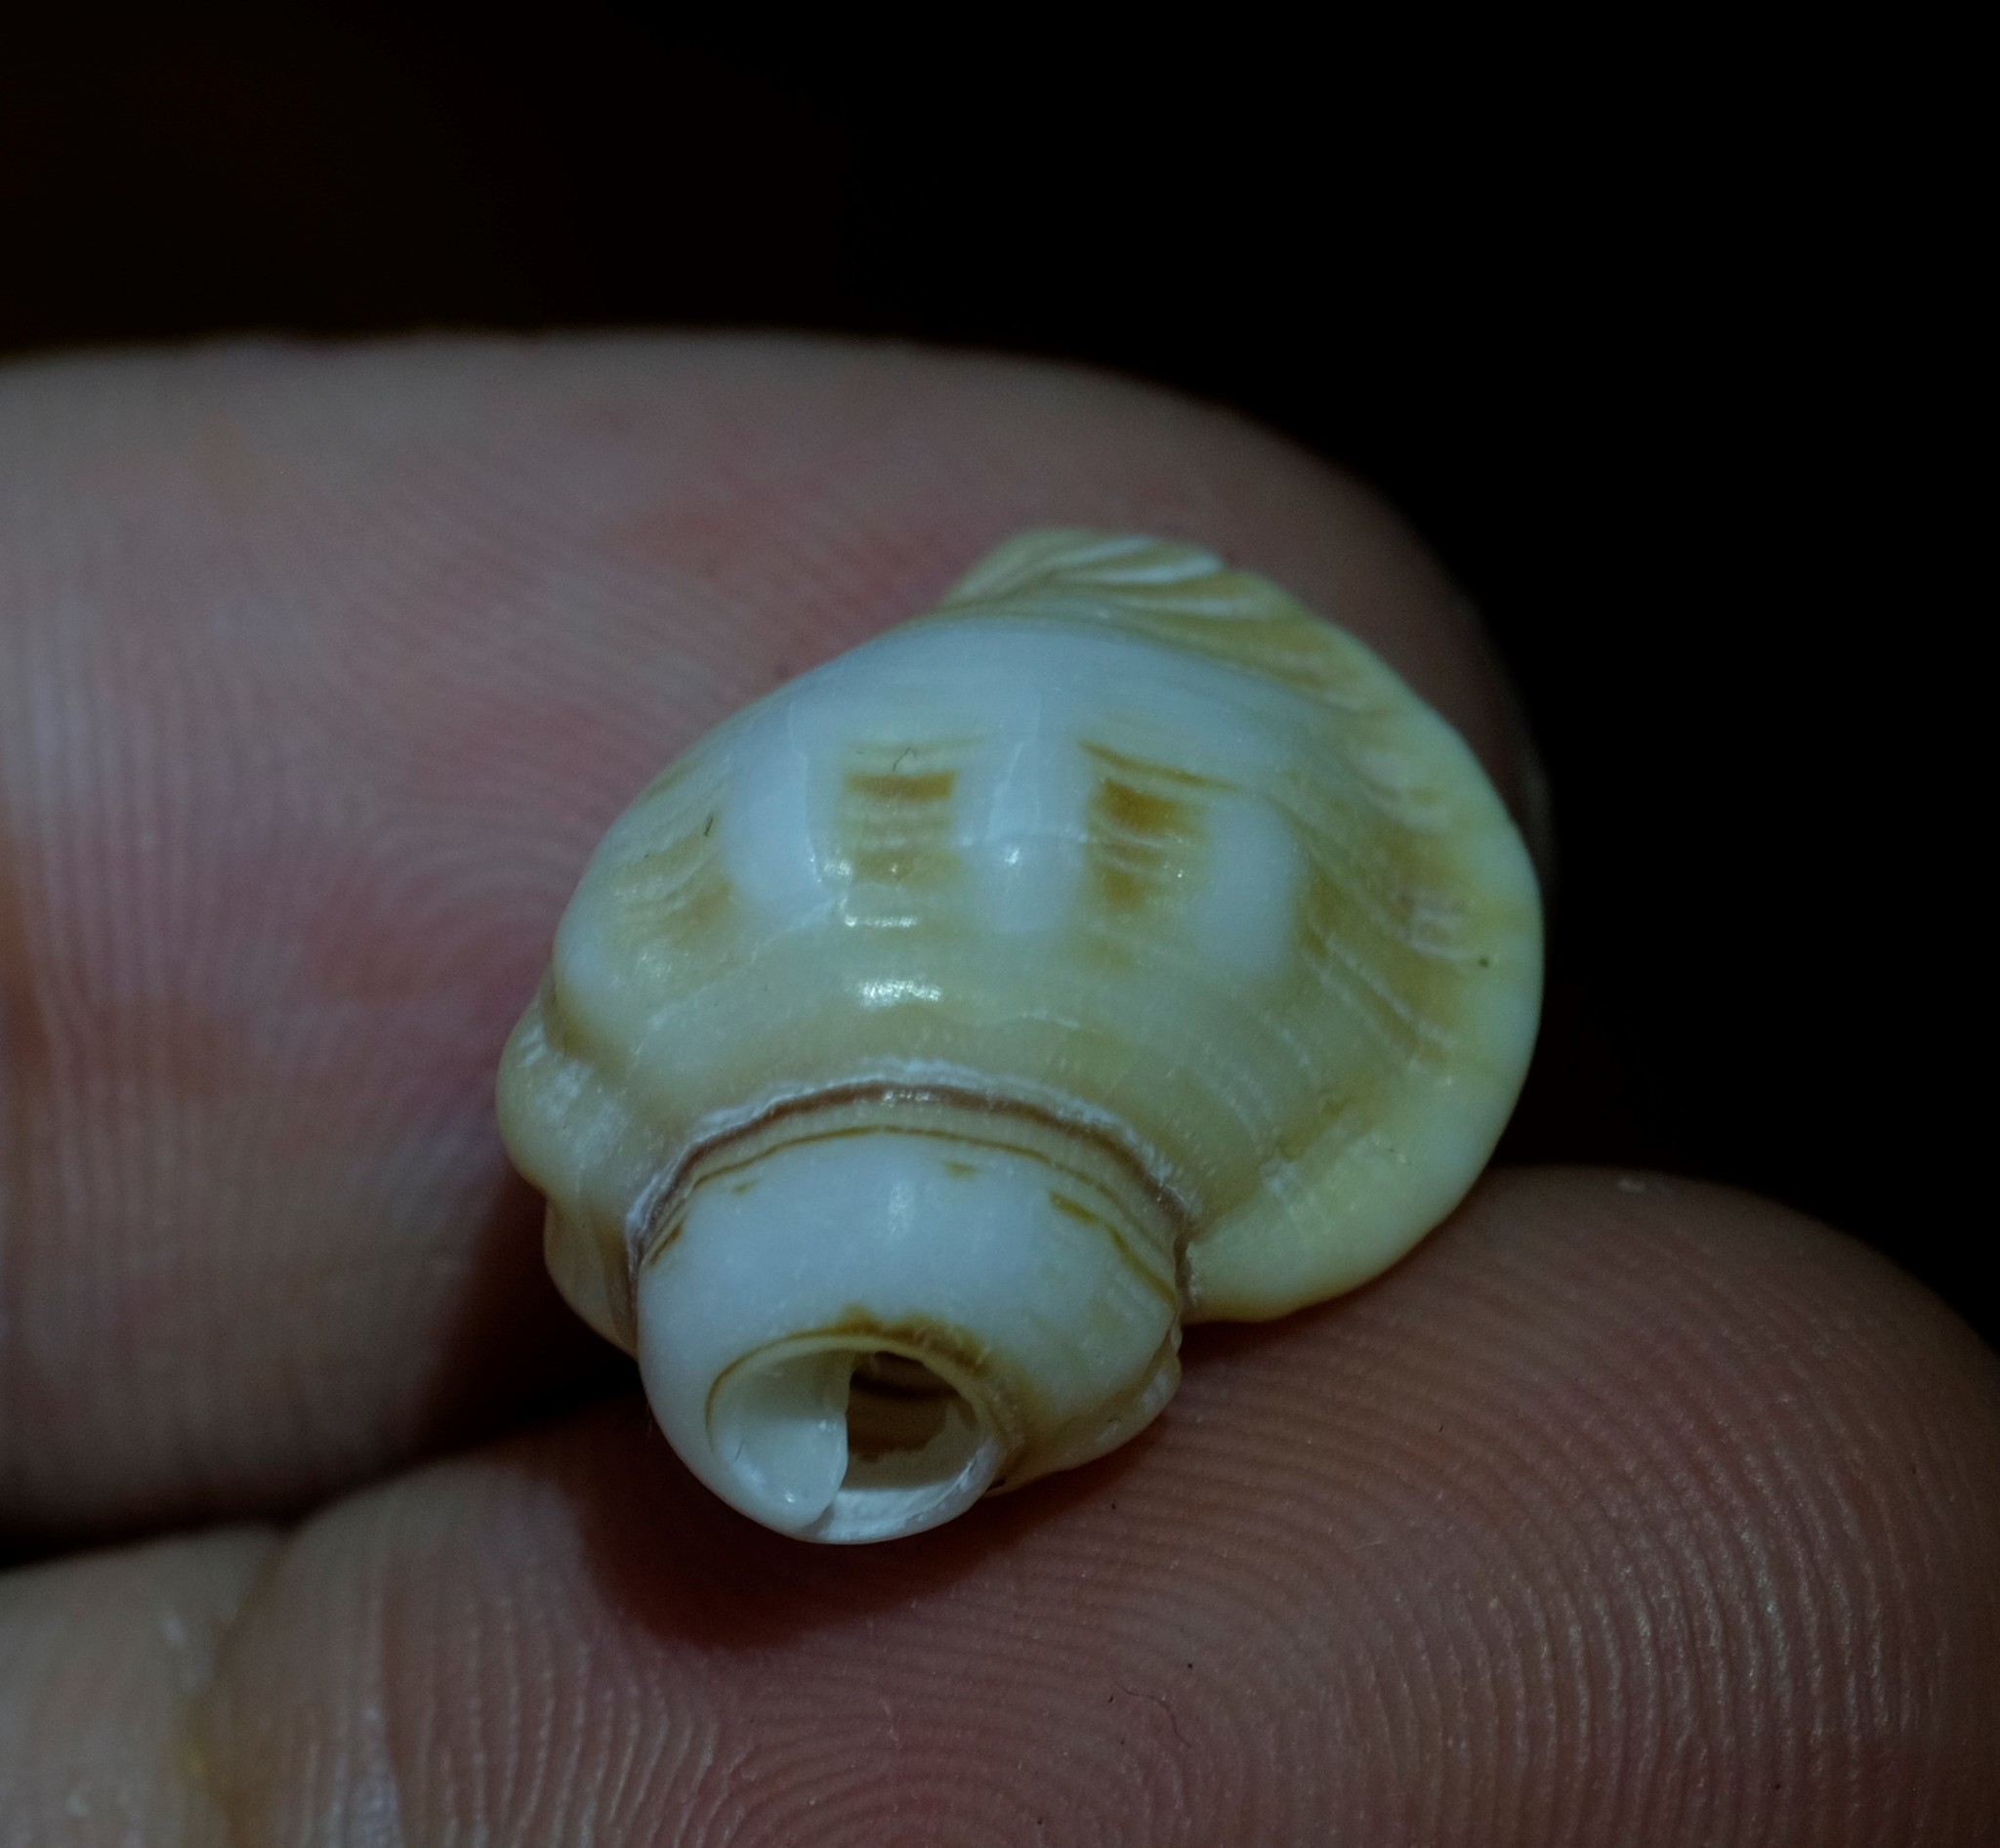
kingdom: Animalia
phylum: Mollusca
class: Gastropoda
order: Littorinimorpha
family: Cymatiidae
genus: Cabestana
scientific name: Cabestana spengleri
